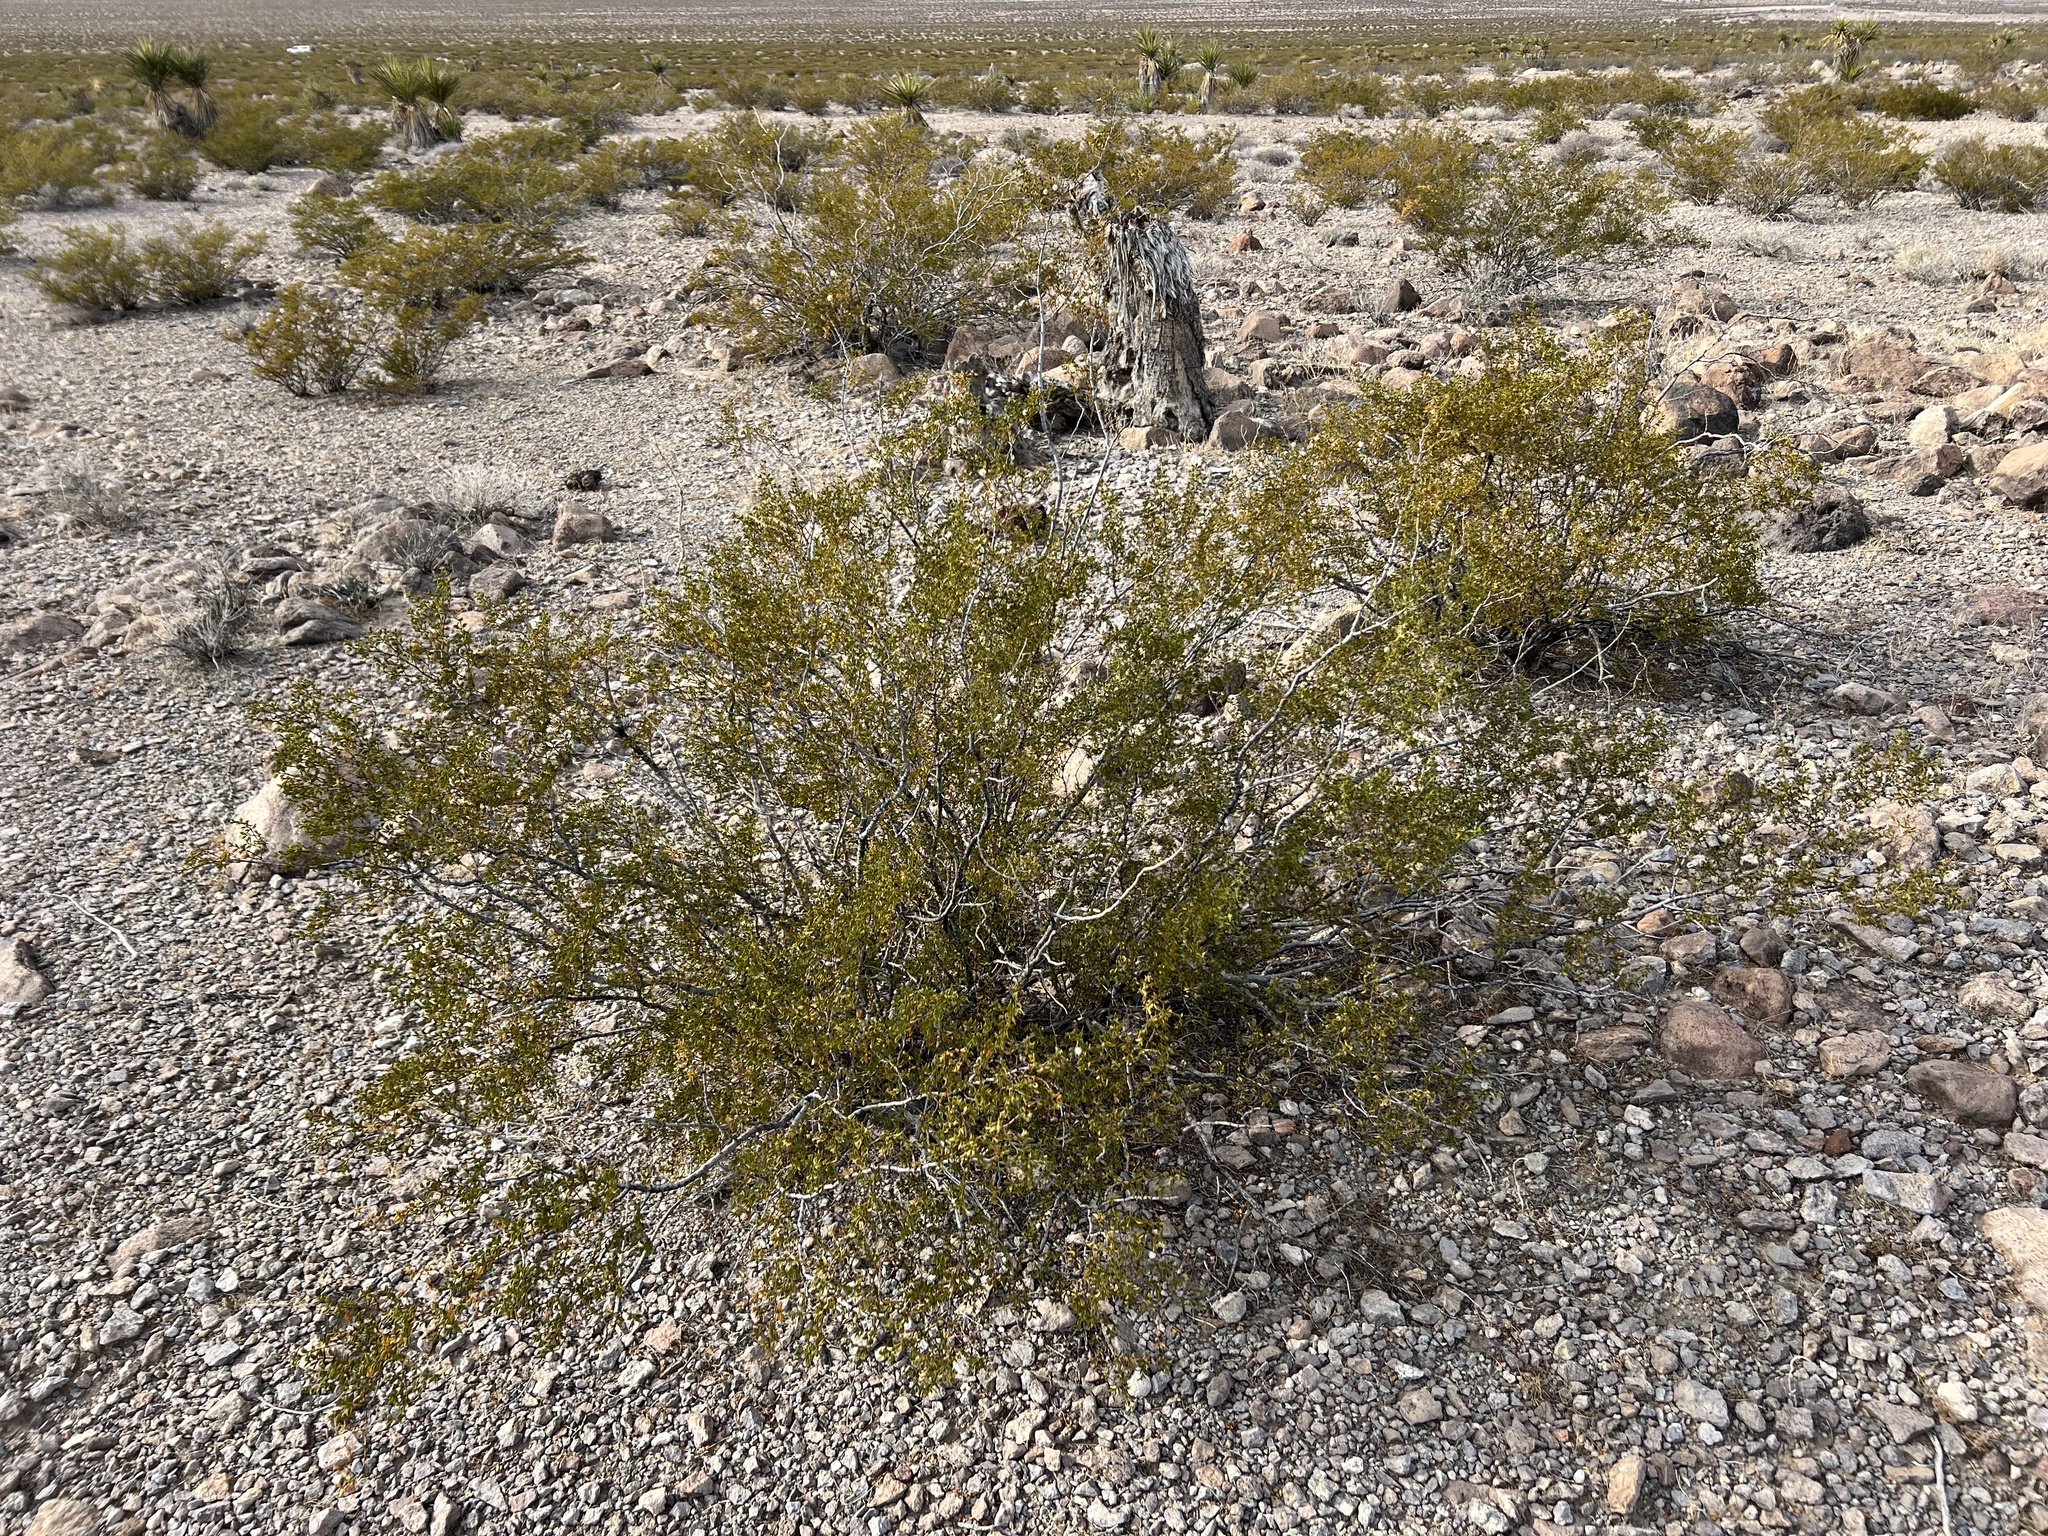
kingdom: Plantae
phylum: Tracheophyta
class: Magnoliopsida
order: Zygophyllales
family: Zygophyllaceae
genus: Larrea
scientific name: Larrea tridentata
